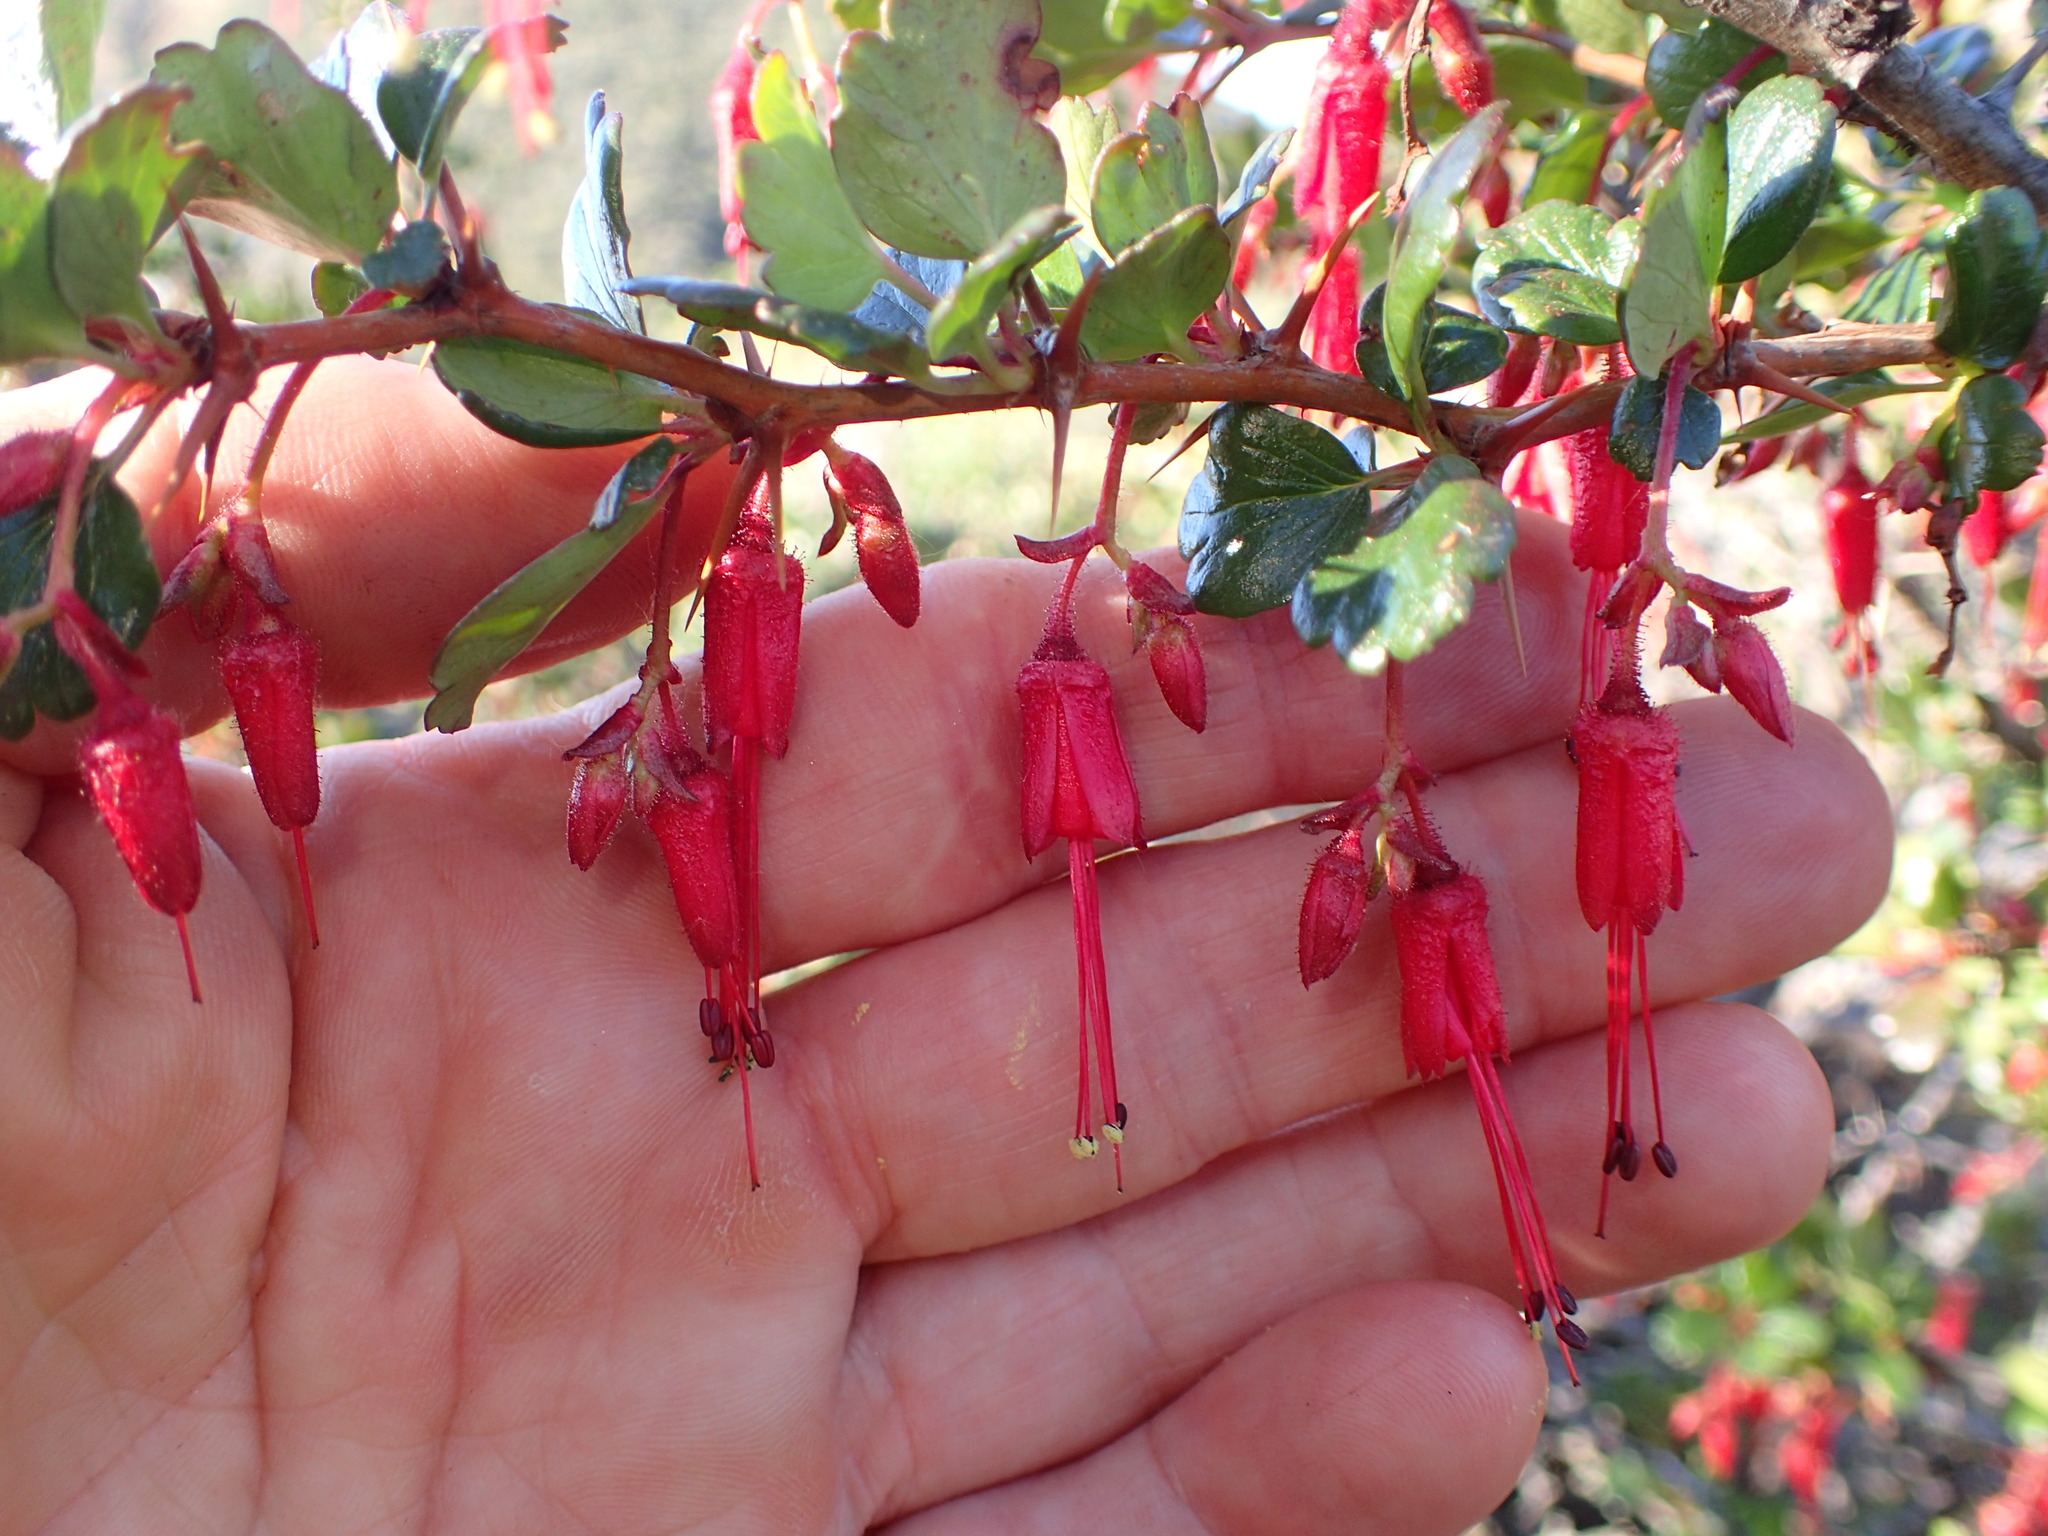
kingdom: Plantae
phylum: Tracheophyta
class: Magnoliopsida
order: Saxifragales
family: Grossulariaceae
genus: Ribes
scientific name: Ribes speciosum
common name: Fuchsia-flower gooseberry
